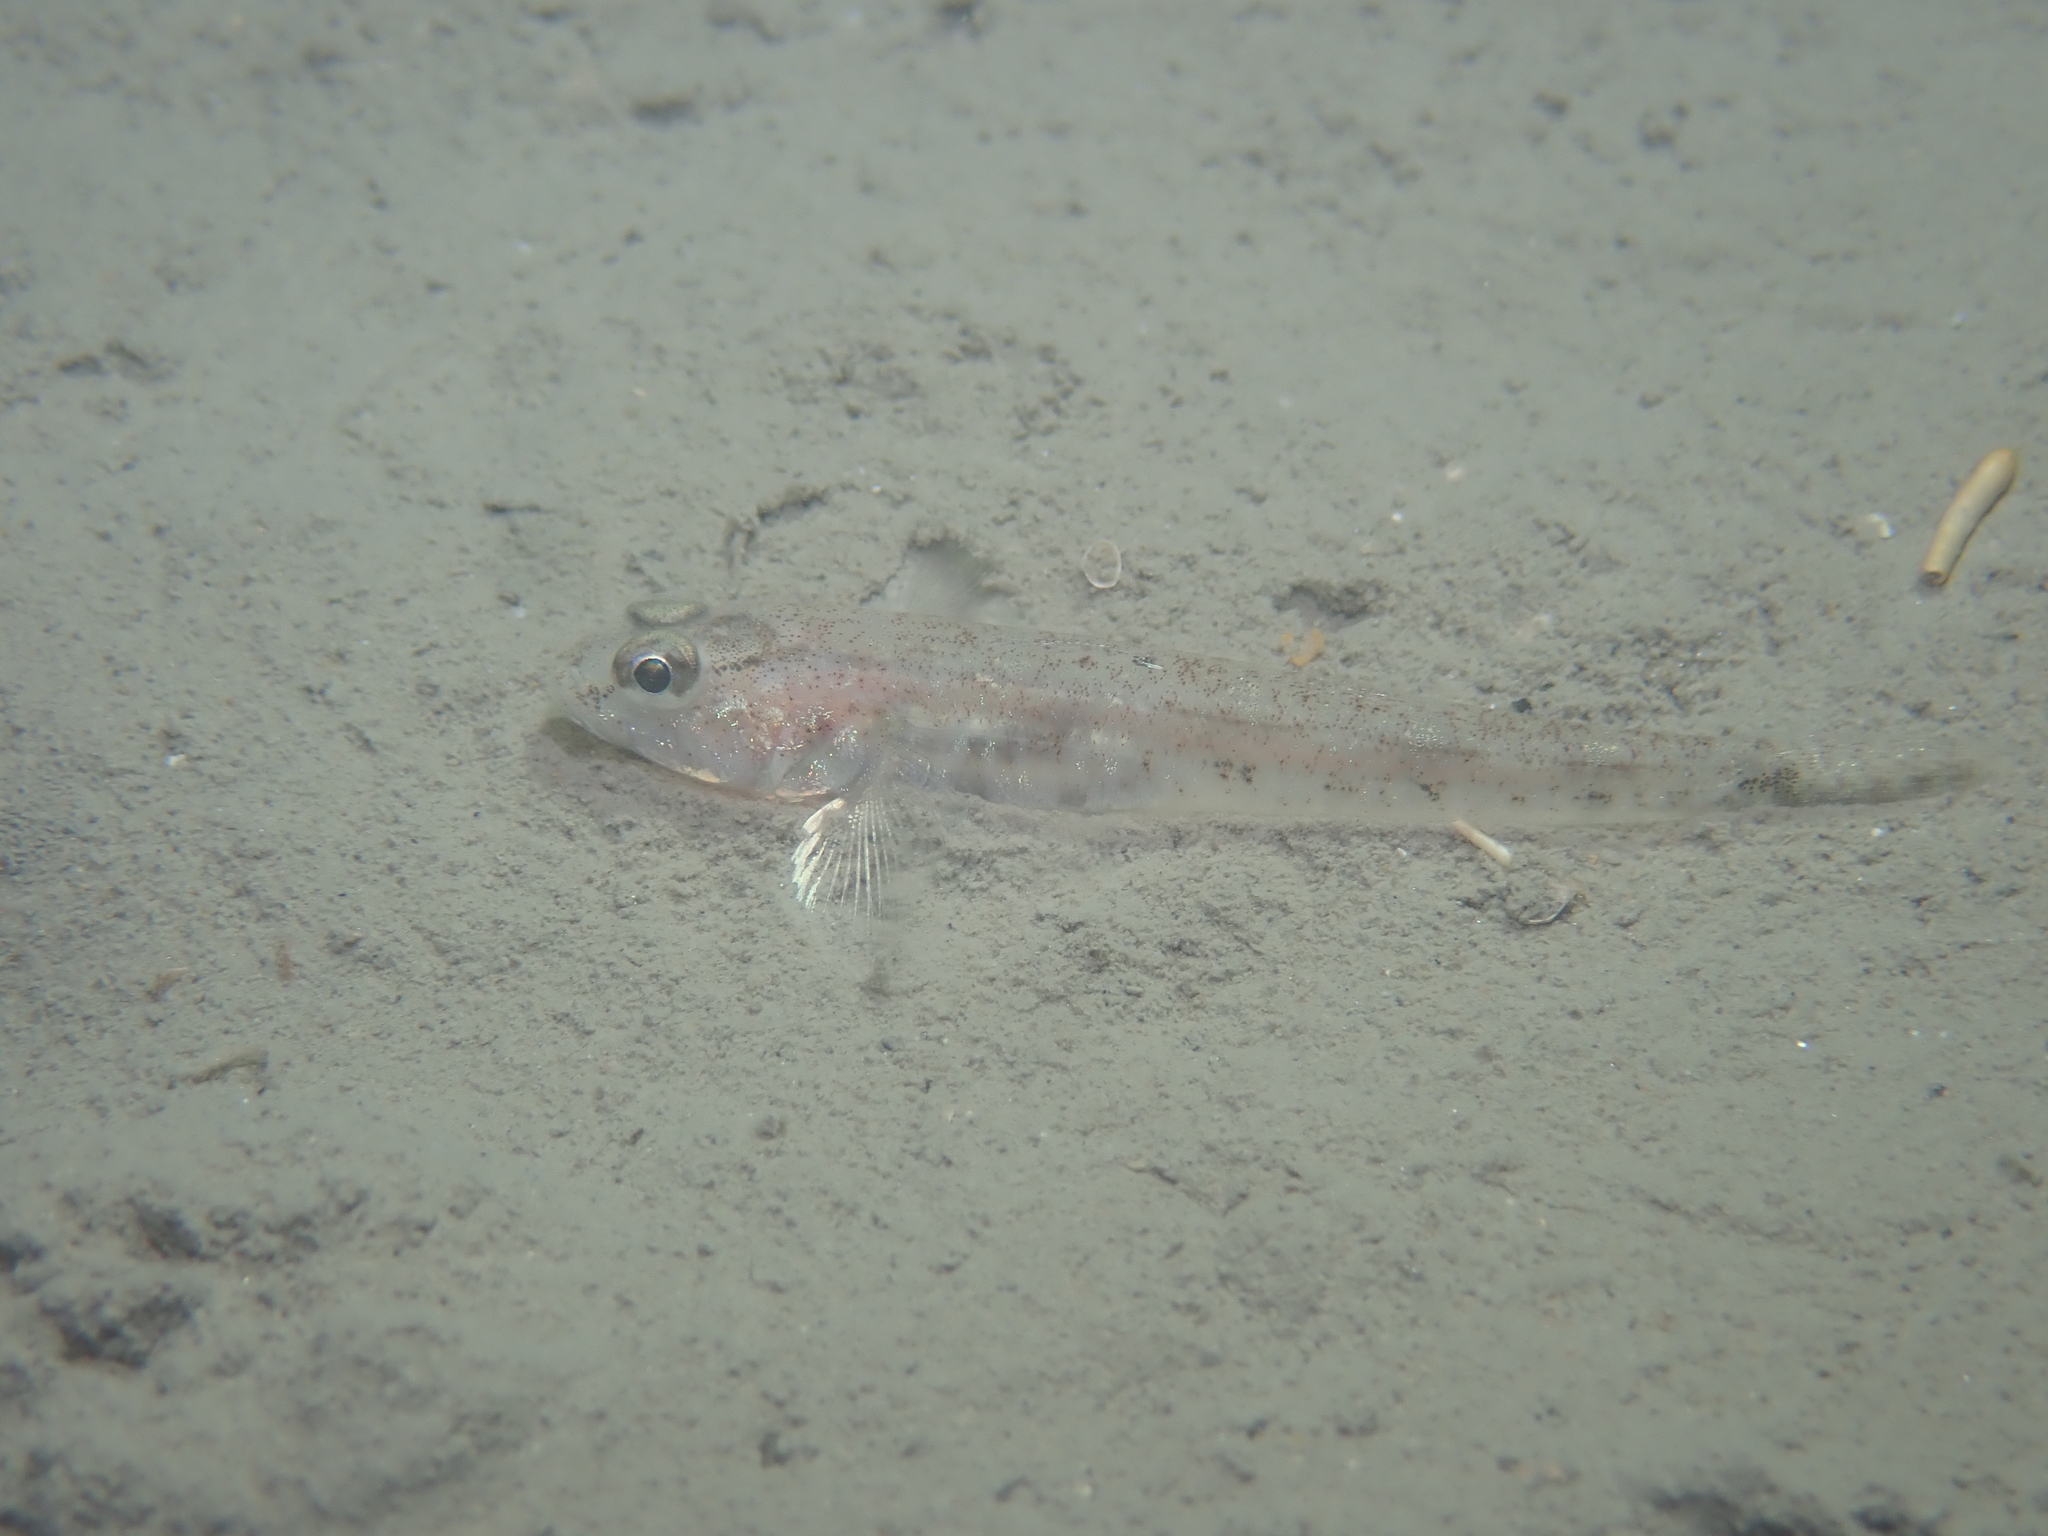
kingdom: Animalia
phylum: Chordata
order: Perciformes
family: Gobiidae
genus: Pomatoschistus
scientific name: Pomatoschistus minutus
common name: Sand goby
